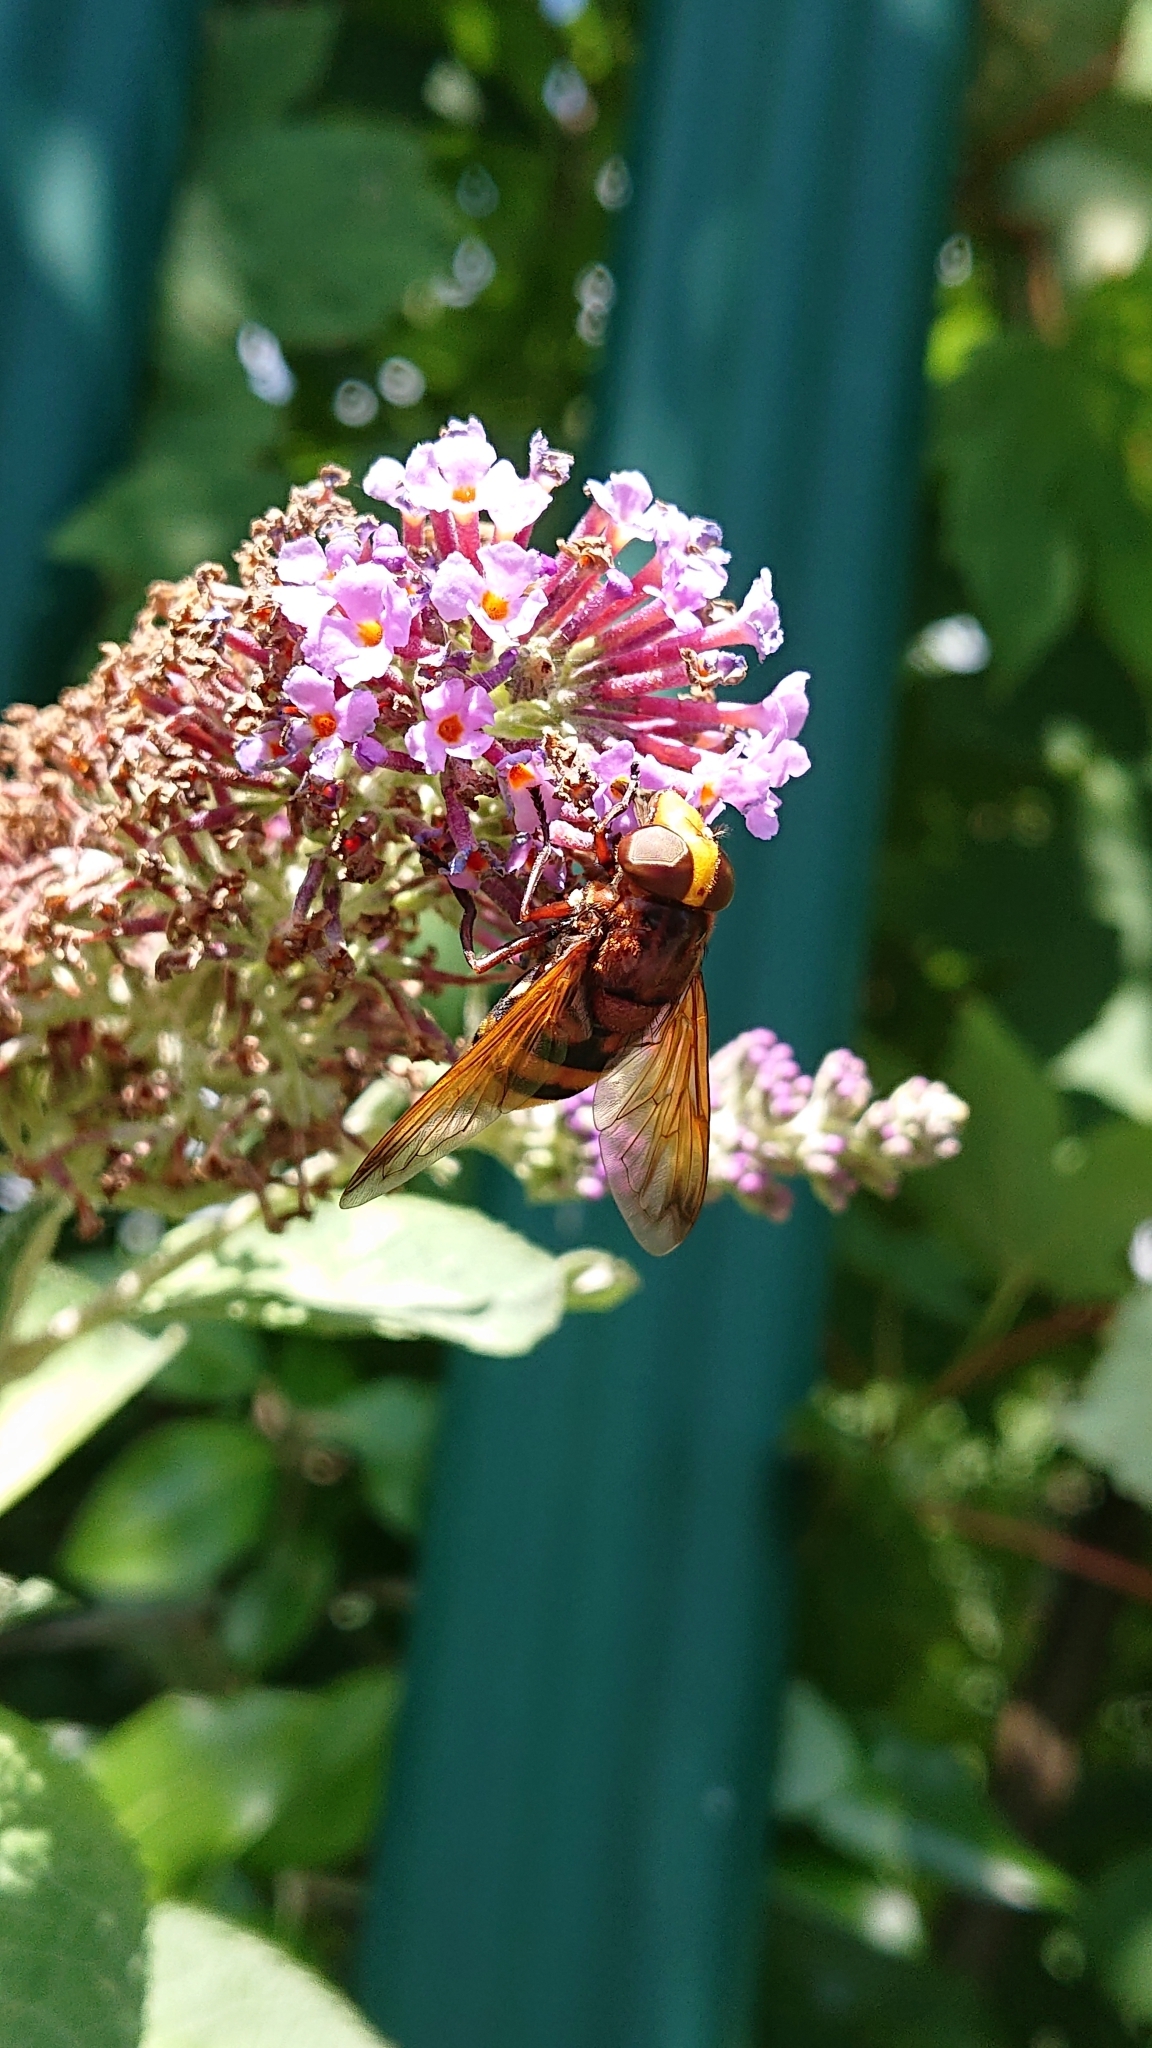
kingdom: Animalia
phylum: Arthropoda
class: Insecta
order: Diptera
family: Syrphidae
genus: Volucella
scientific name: Volucella zonaria
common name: Hornet hoverfly
